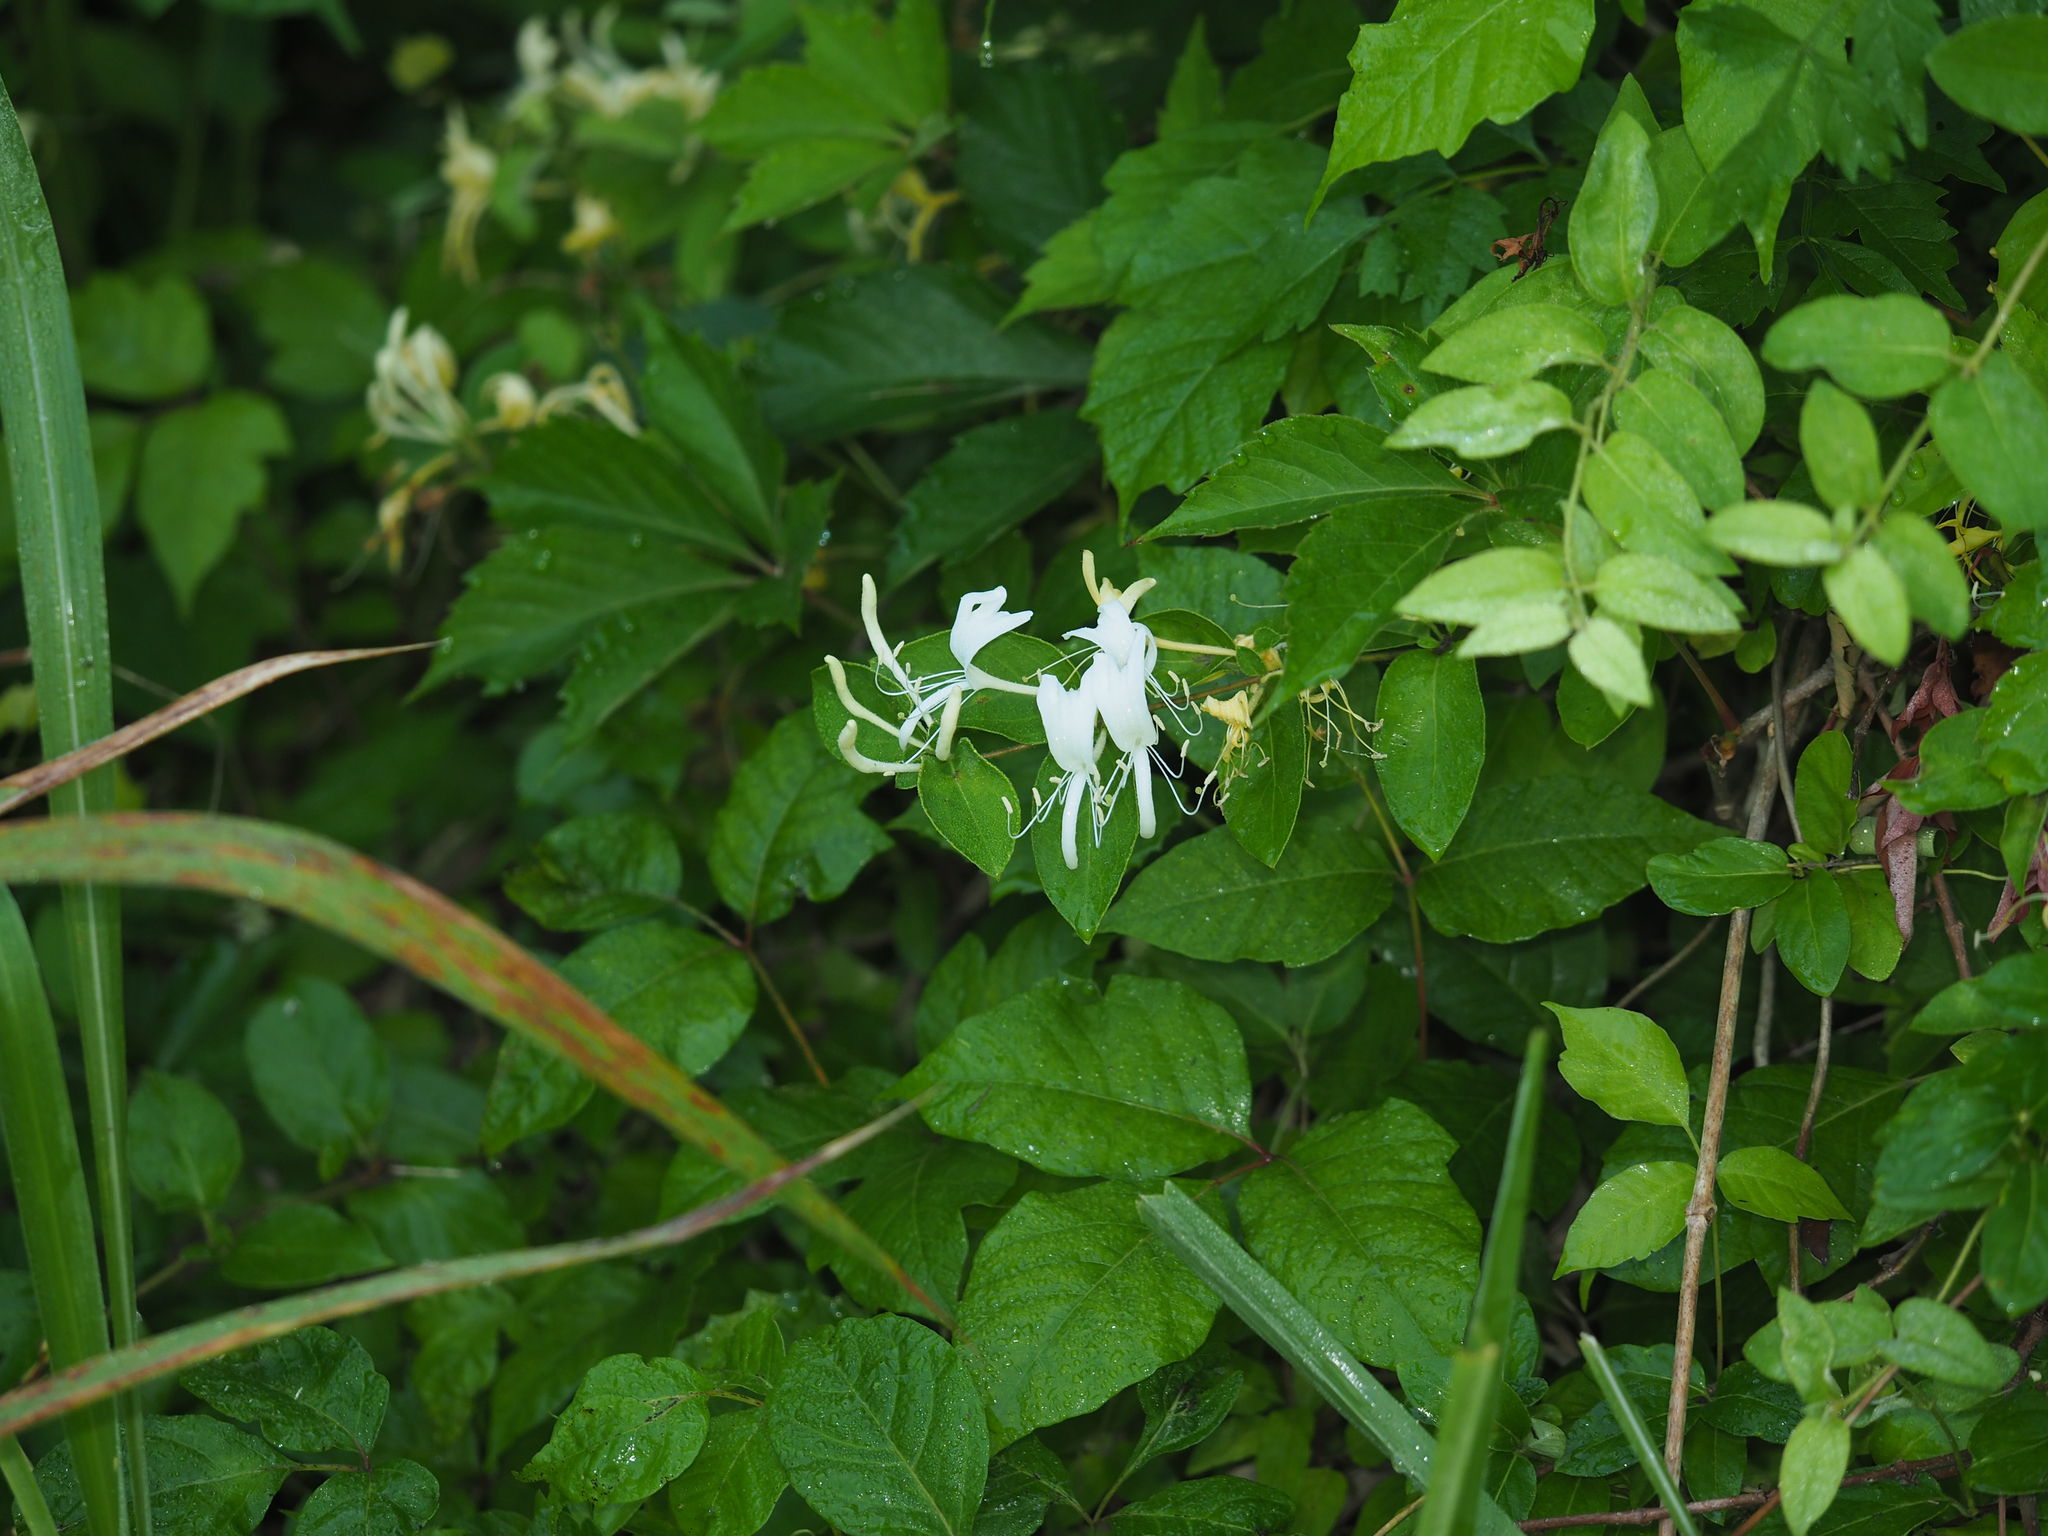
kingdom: Plantae
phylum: Tracheophyta
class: Magnoliopsida
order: Dipsacales
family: Caprifoliaceae
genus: Lonicera
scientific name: Lonicera japonica
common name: Japanese honeysuckle
